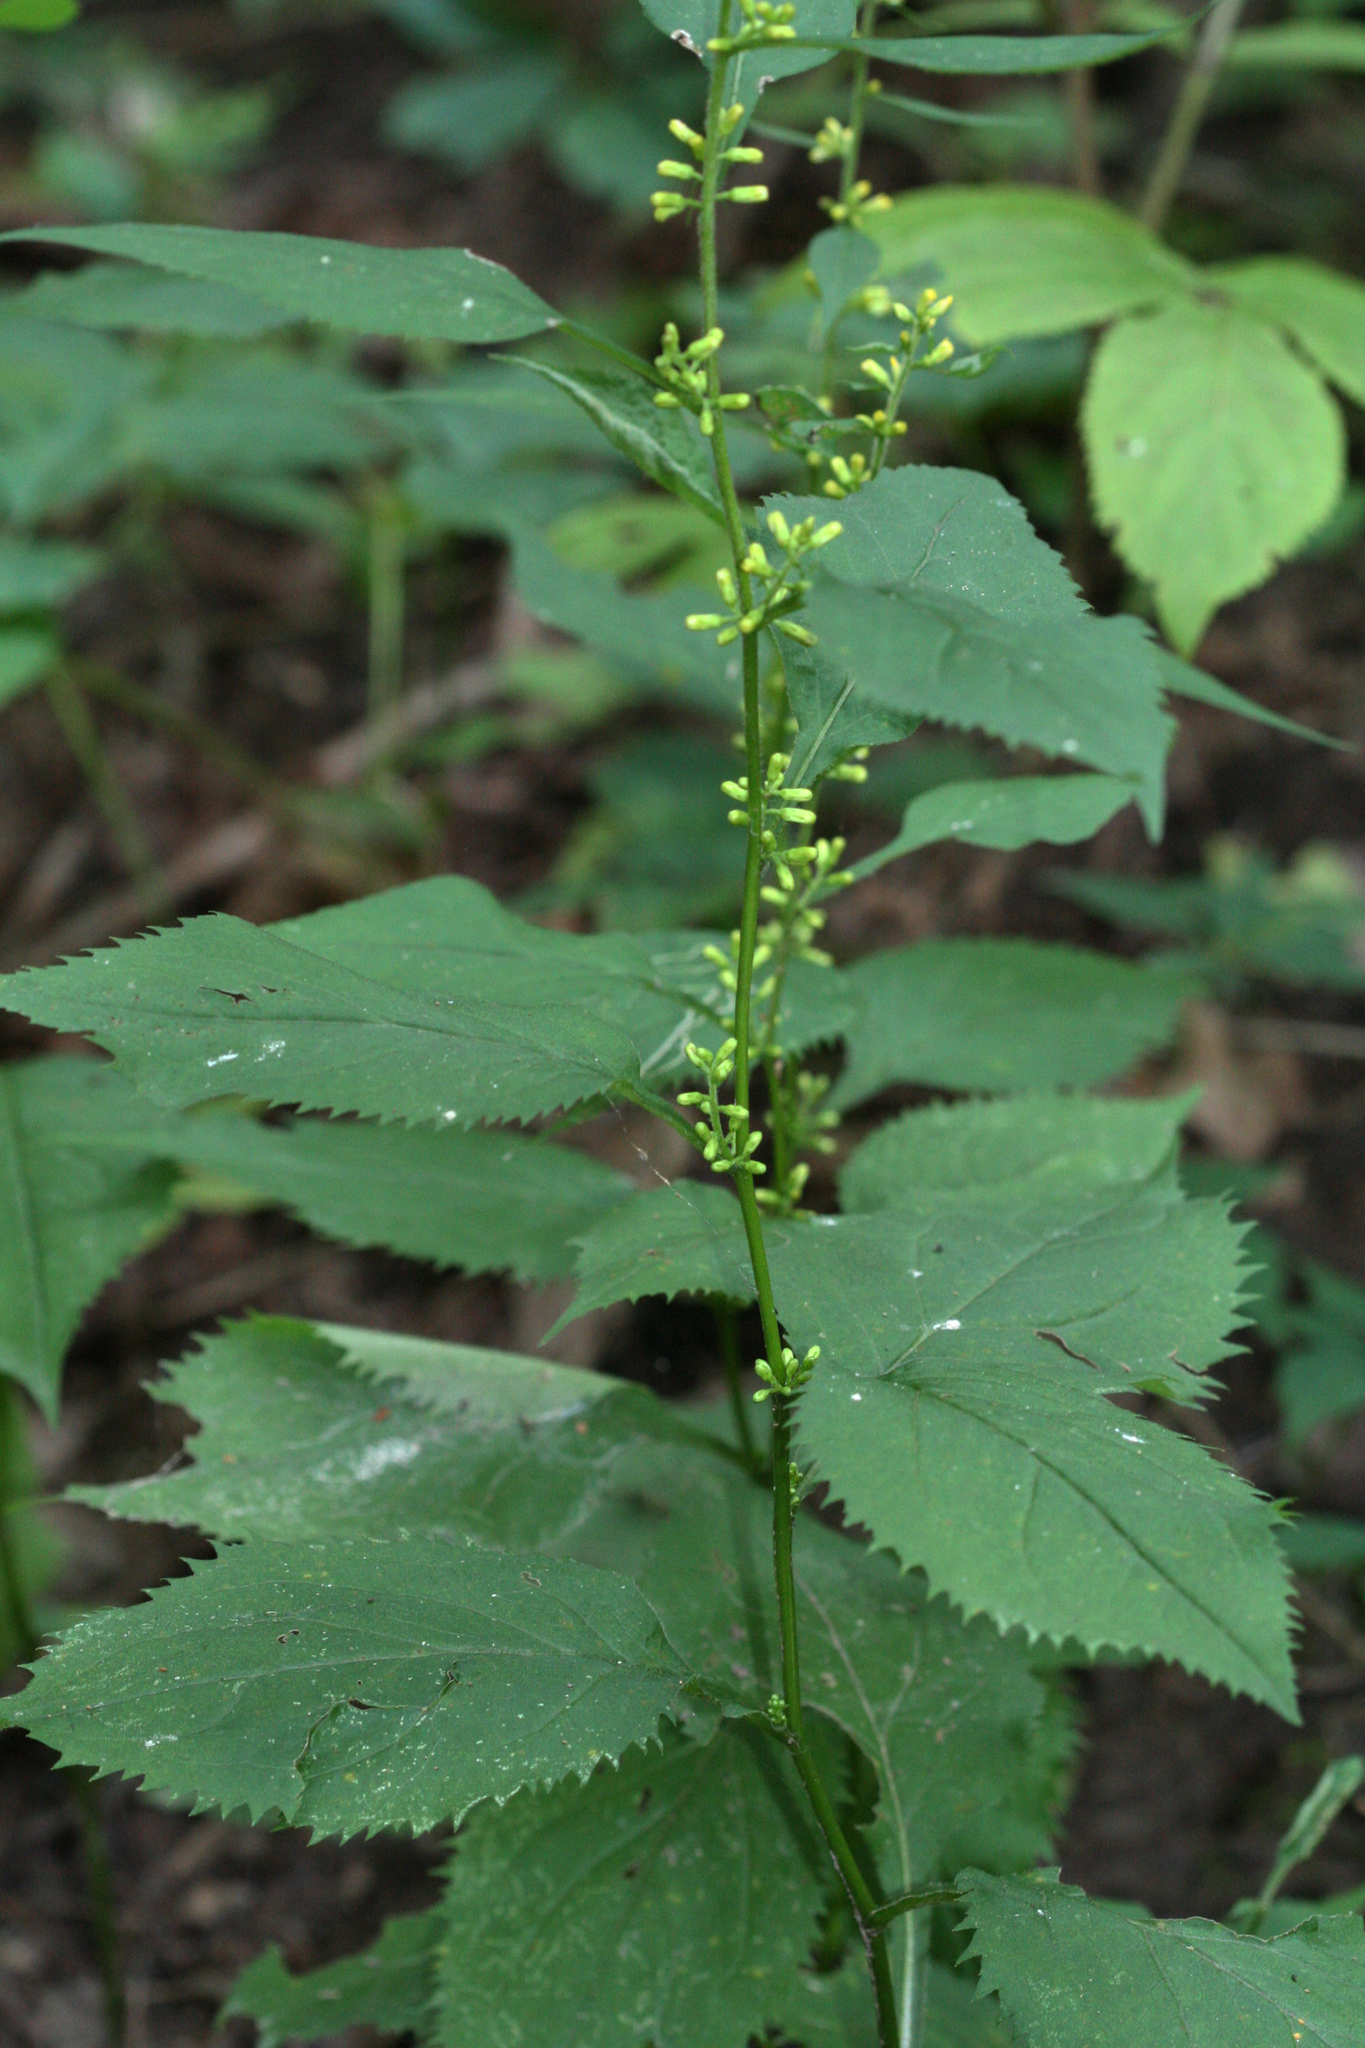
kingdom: Plantae
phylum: Tracheophyta
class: Magnoliopsida
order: Asterales
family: Asteraceae
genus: Solidago
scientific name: Solidago flexicaulis
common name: Zig-zag goldenrod
